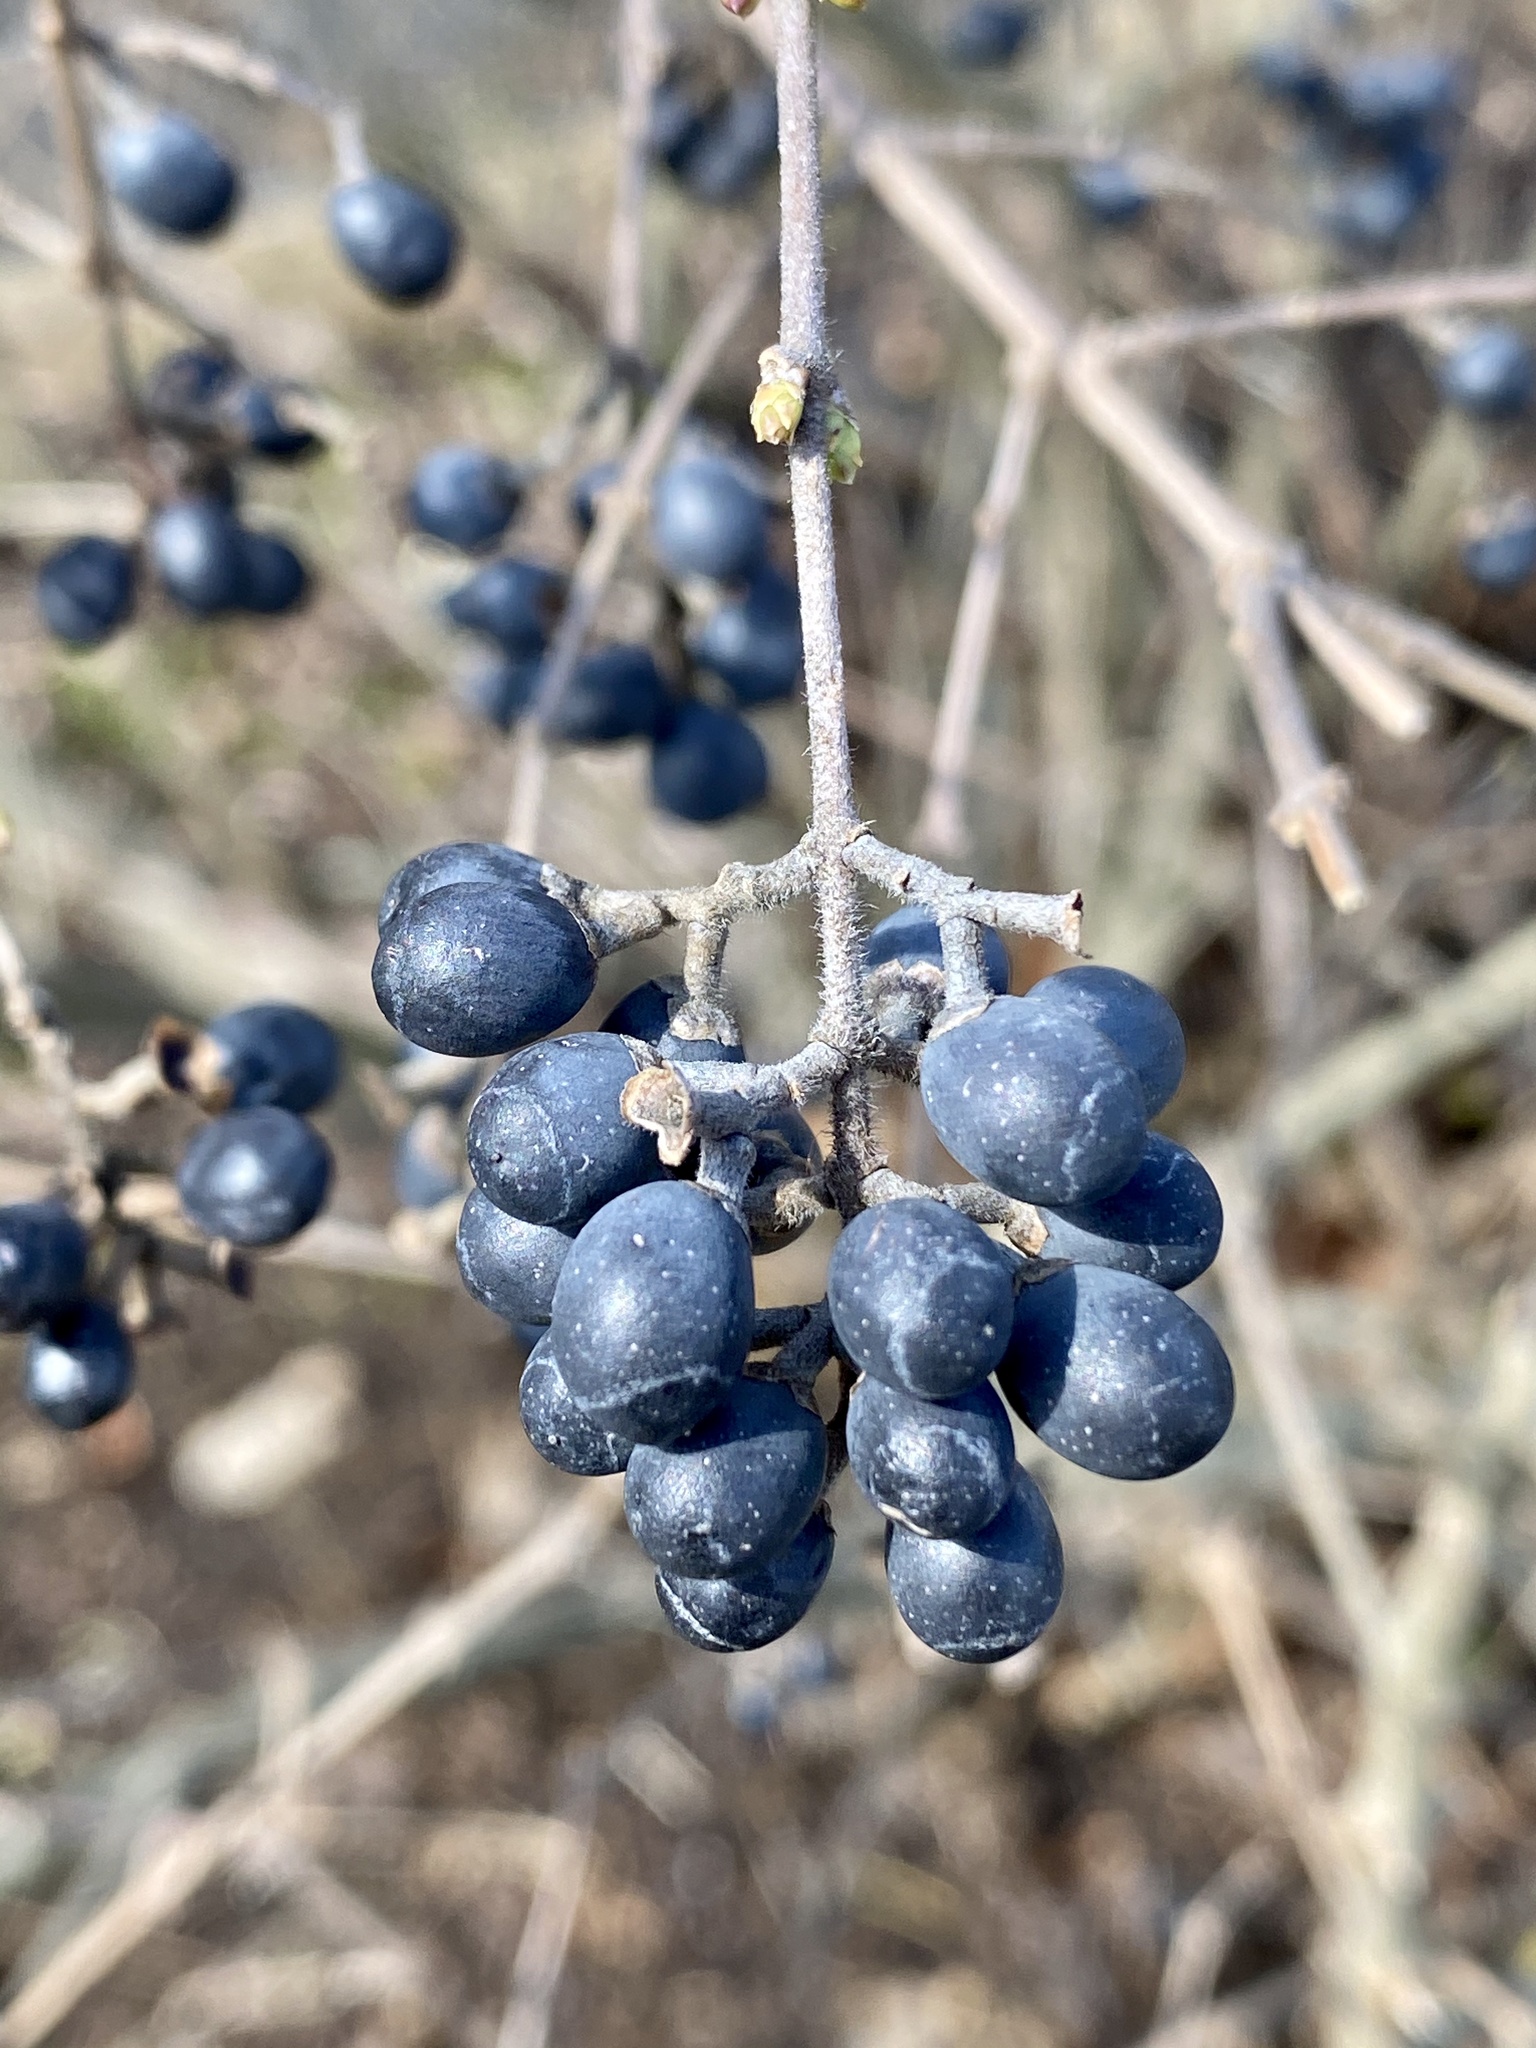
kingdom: Plantae
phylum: Tracheophyta
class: Magnoliopsida
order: Lamiales
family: Oleaceae
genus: Ligustrum
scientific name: Ligustrum obtusifolium
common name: Border privet
